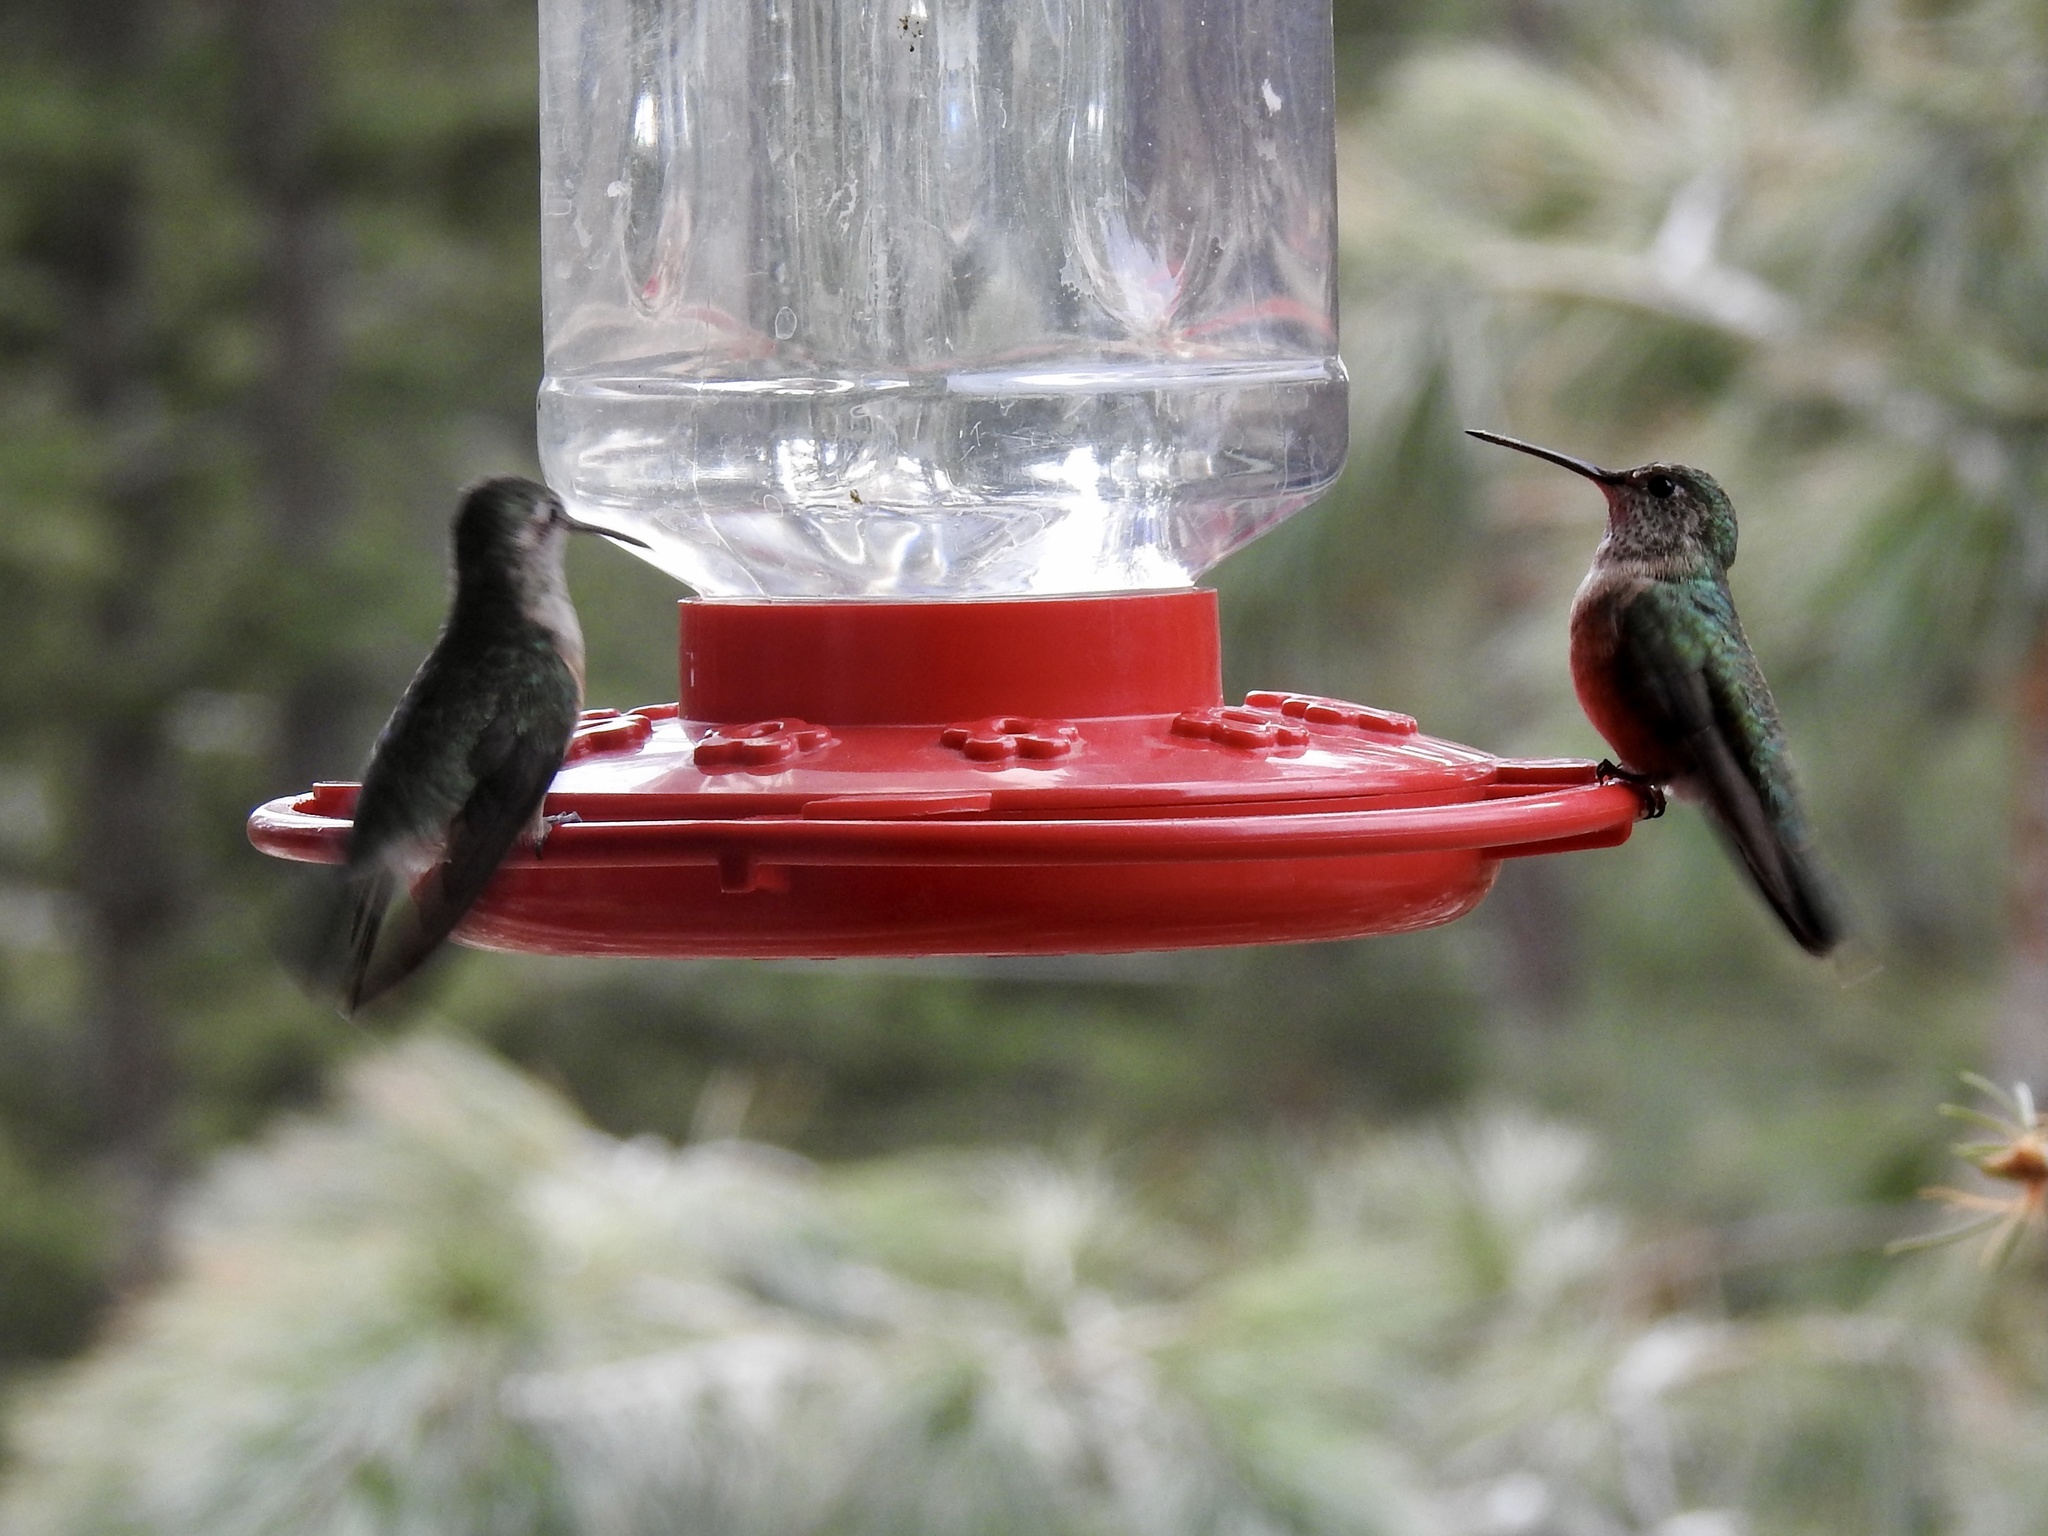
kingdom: Animalia
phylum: Chordata
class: Aves
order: Apodiformes
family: Trochilidae
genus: Selasphorus
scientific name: Selasphorus platycercus
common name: Broad-tailed hummingbird
